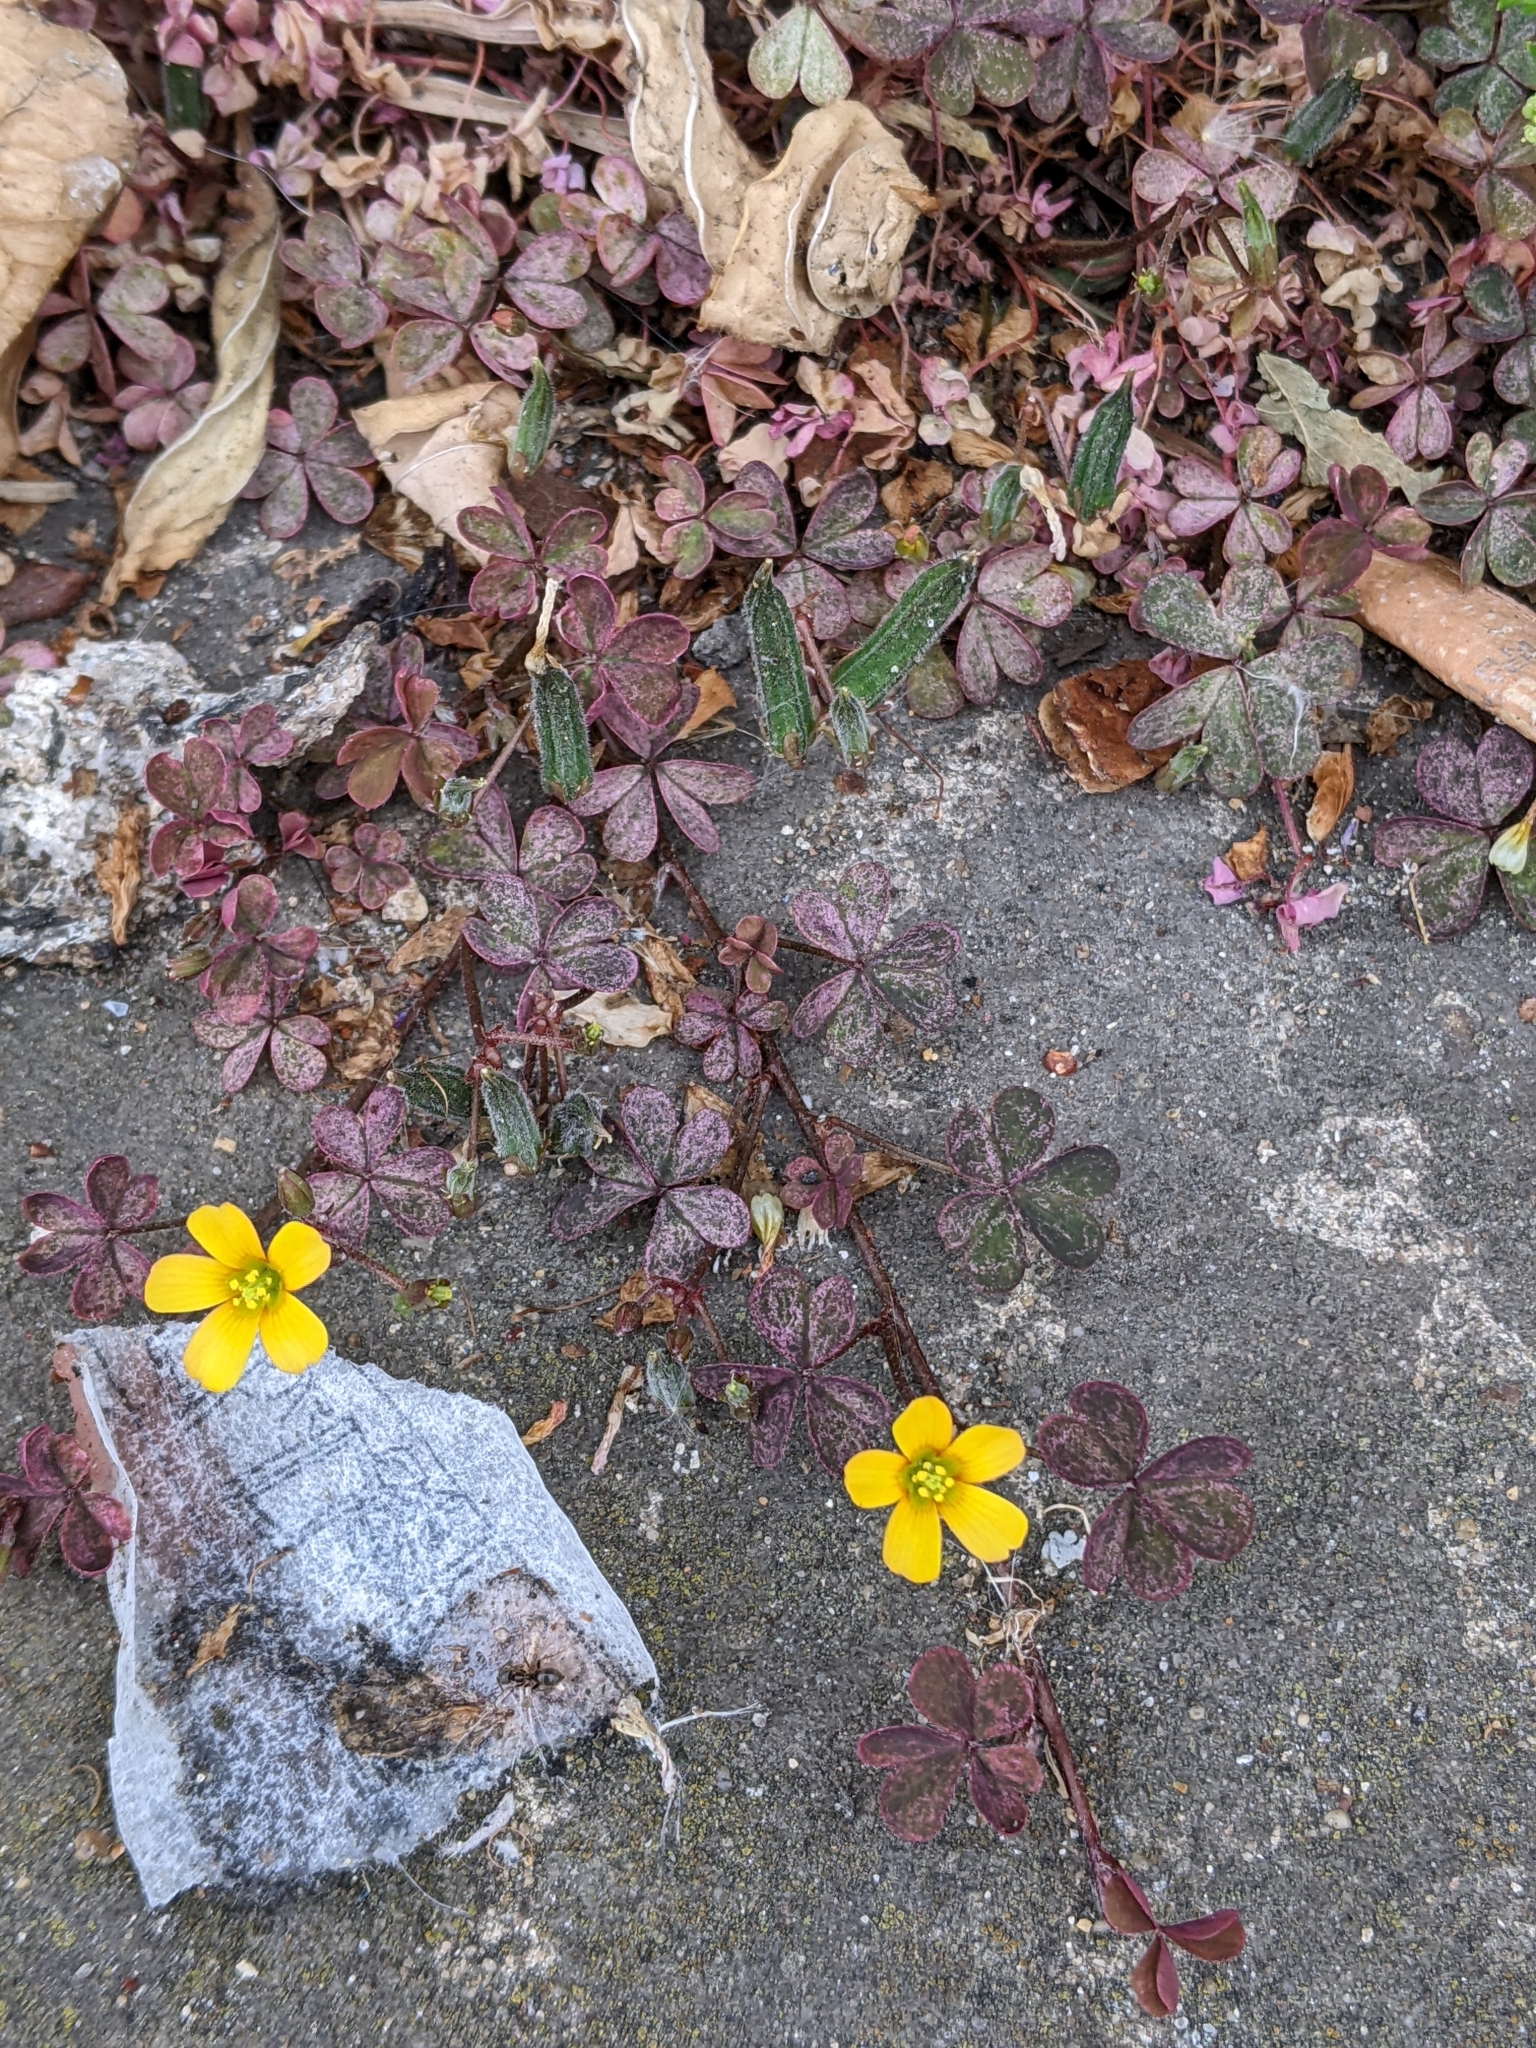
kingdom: Plantae
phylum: Tracheophyta
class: Magnoliopsida
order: Oxalidales
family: Oxalidaceae
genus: Oxalis
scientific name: Oxalis corniculata
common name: Procumbent yellow-sorrel
